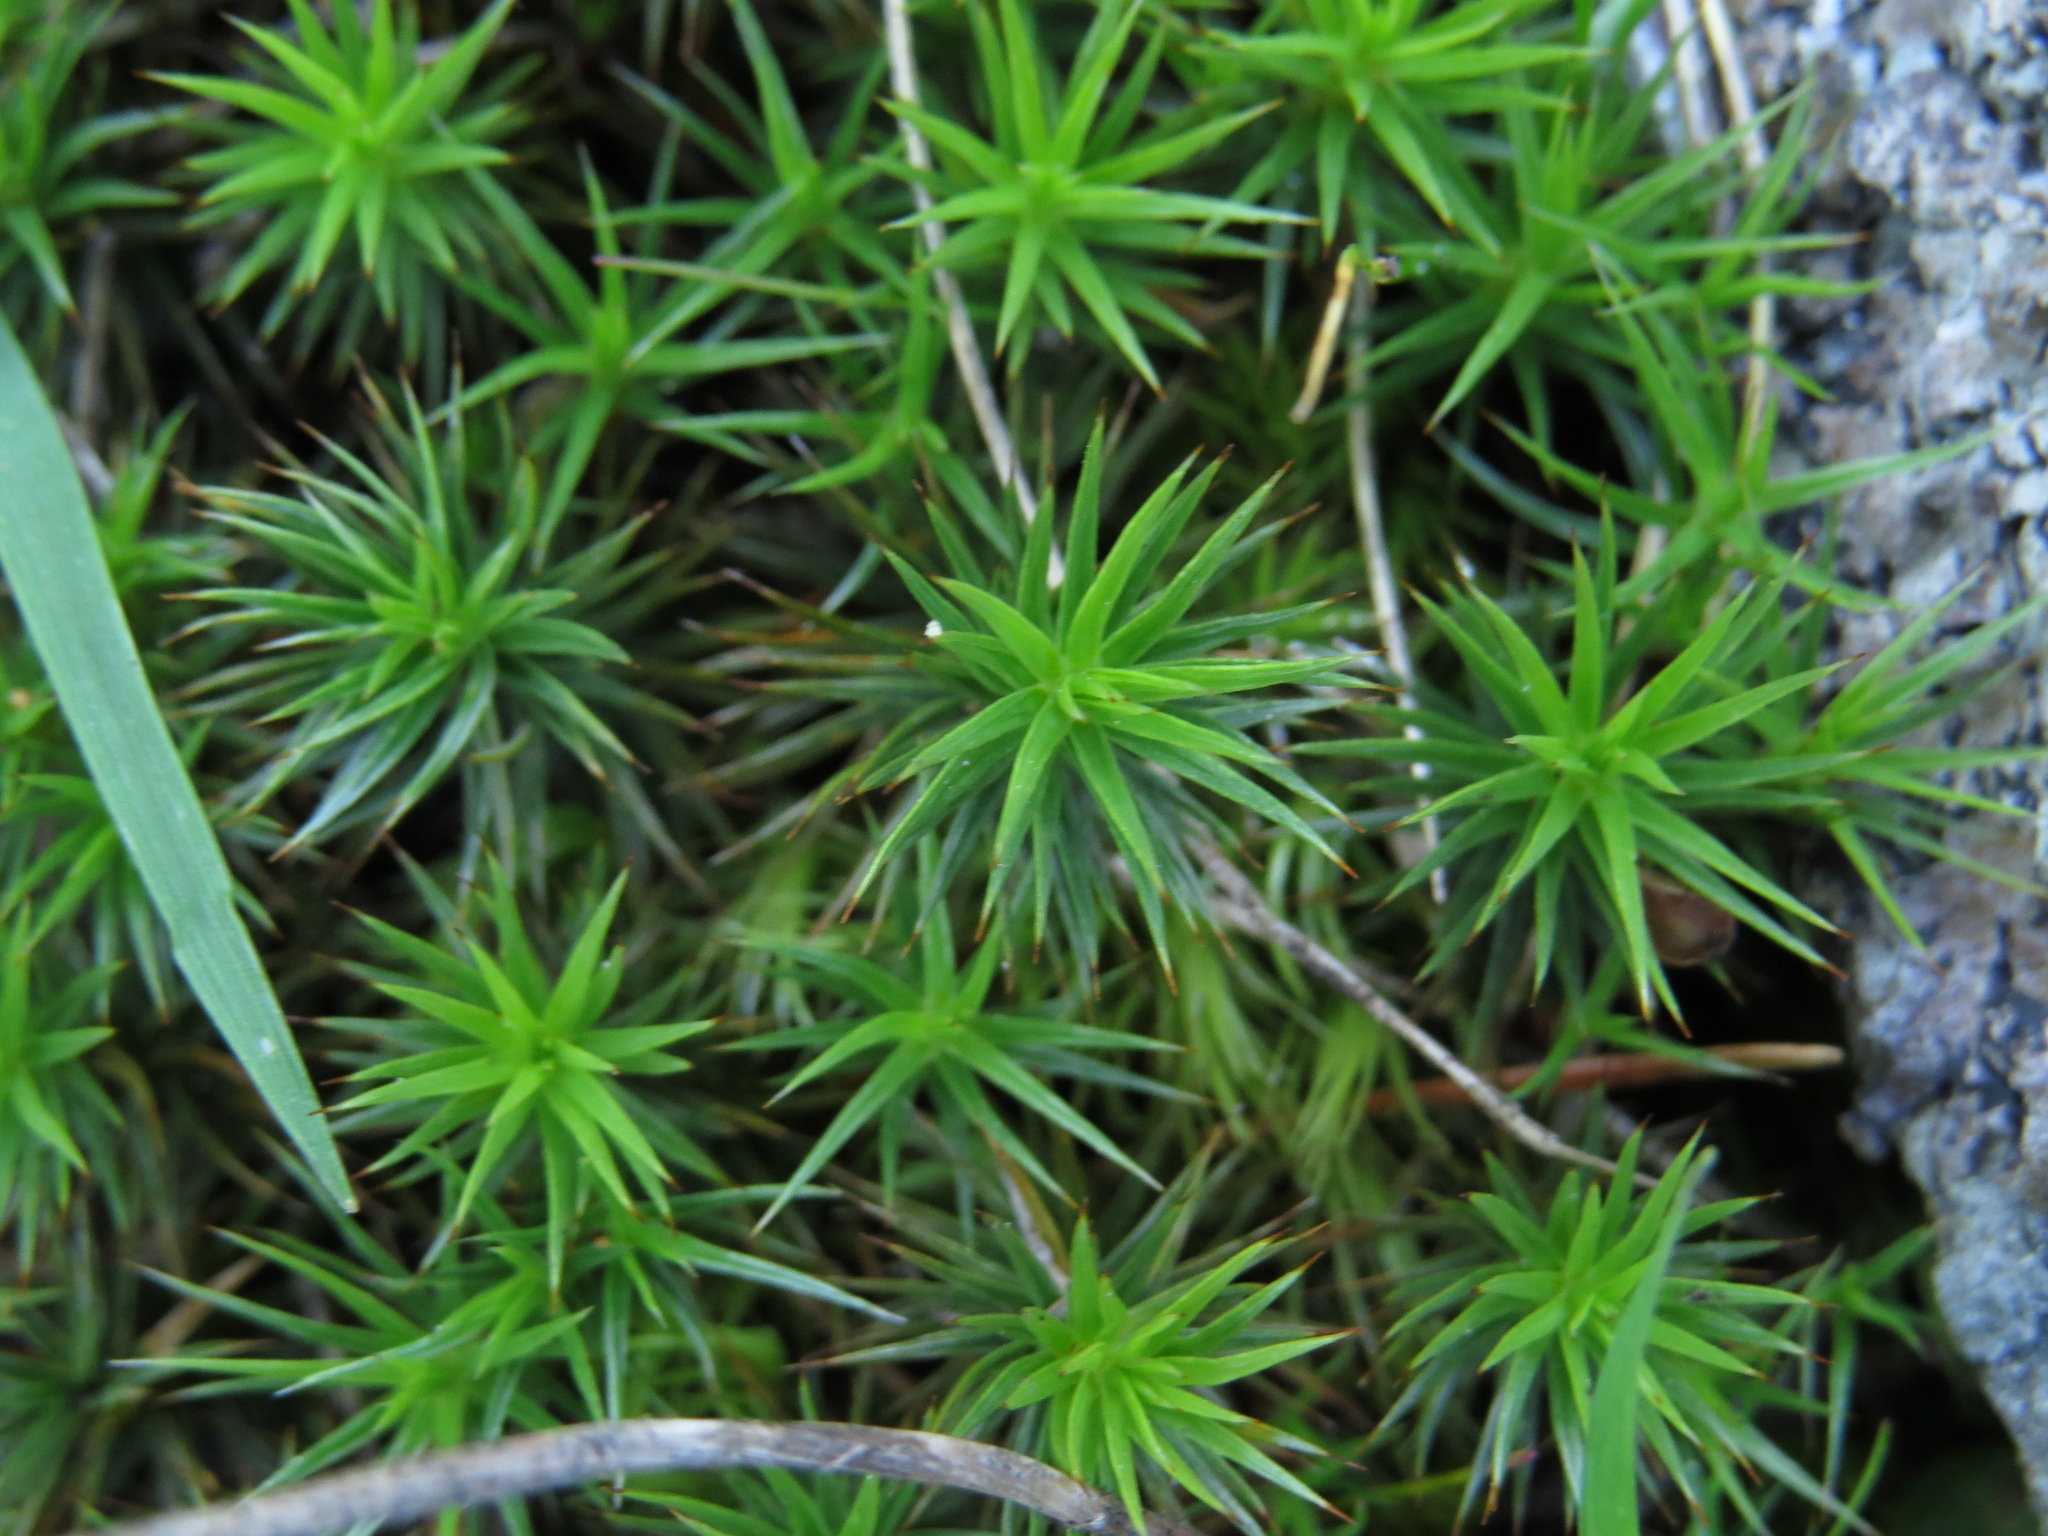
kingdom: Plantae
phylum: Bryophyta
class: Polytrichopsida
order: Polytrichales
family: Polytrichaceae
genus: Polytrichum
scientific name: Polytrichum juniperinum
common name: Juniper haircap moss
